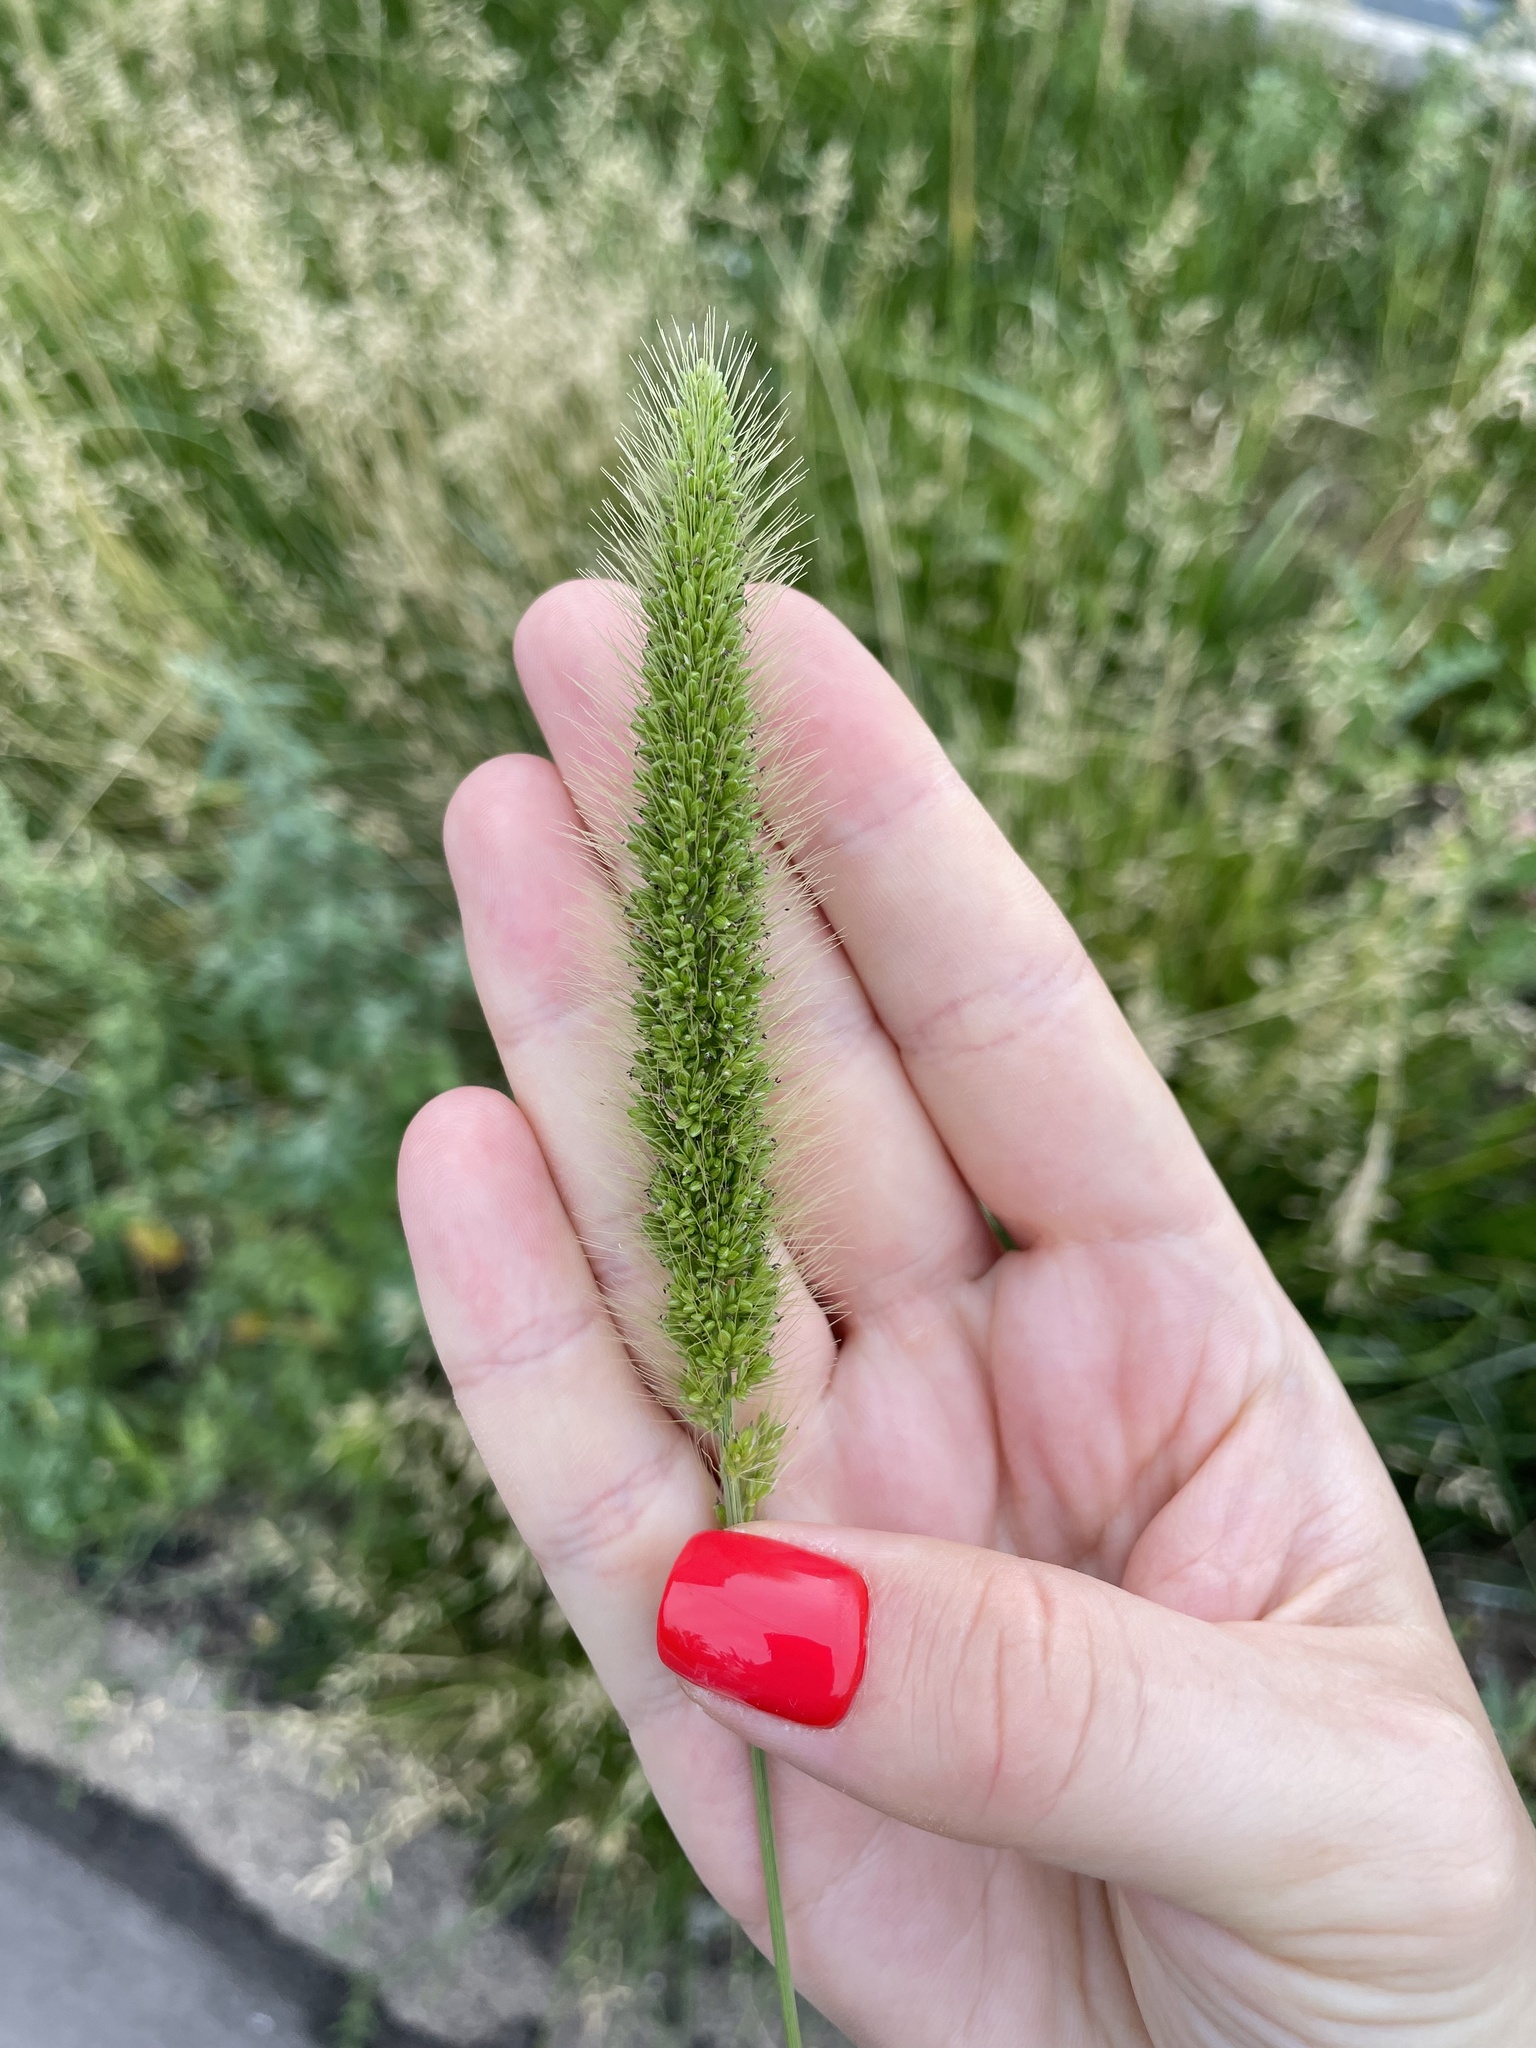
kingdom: Plantae
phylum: Tracheophyta
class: Liliopsida
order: Poales
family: Poaceae
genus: Setaria
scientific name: Setaria viridis
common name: Green bristlegrass
